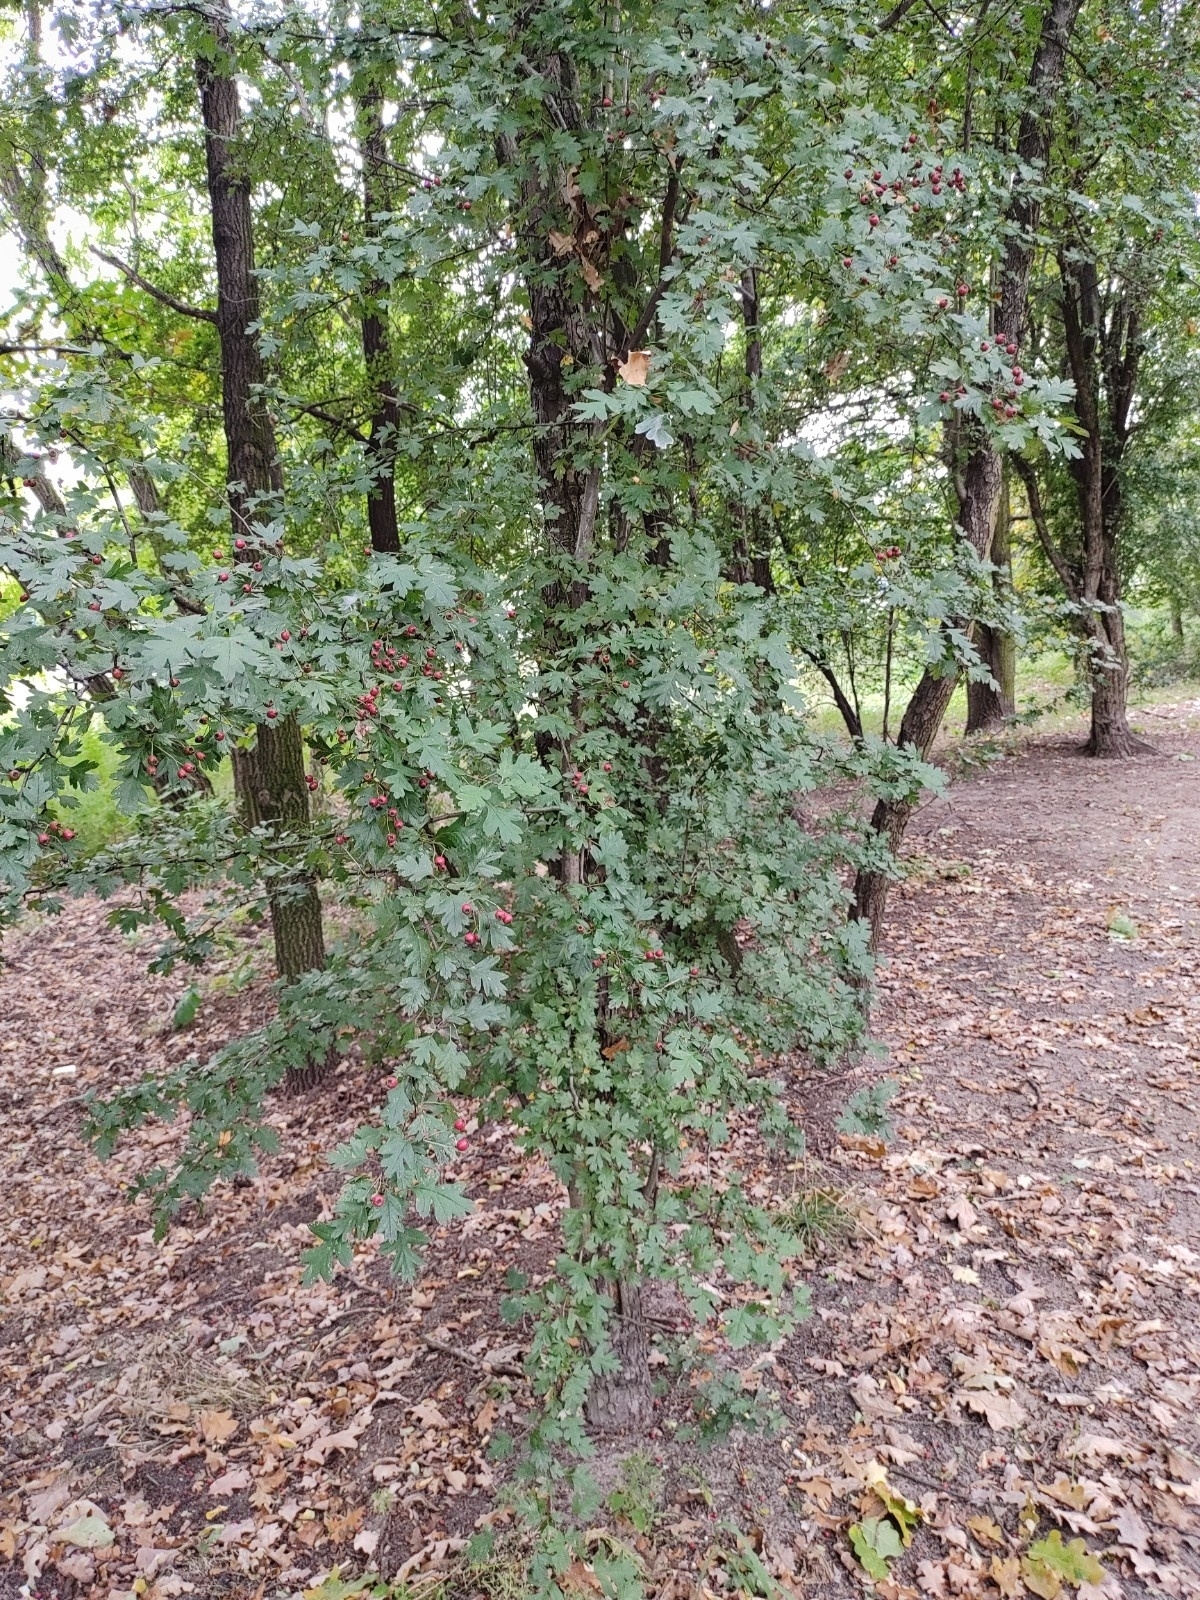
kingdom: Plantae
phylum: Tracheophyta
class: Magnoliopsida
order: Rosales
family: Rosaceae
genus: Crataegus
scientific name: Crataegus monogyna
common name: Hawthorn
